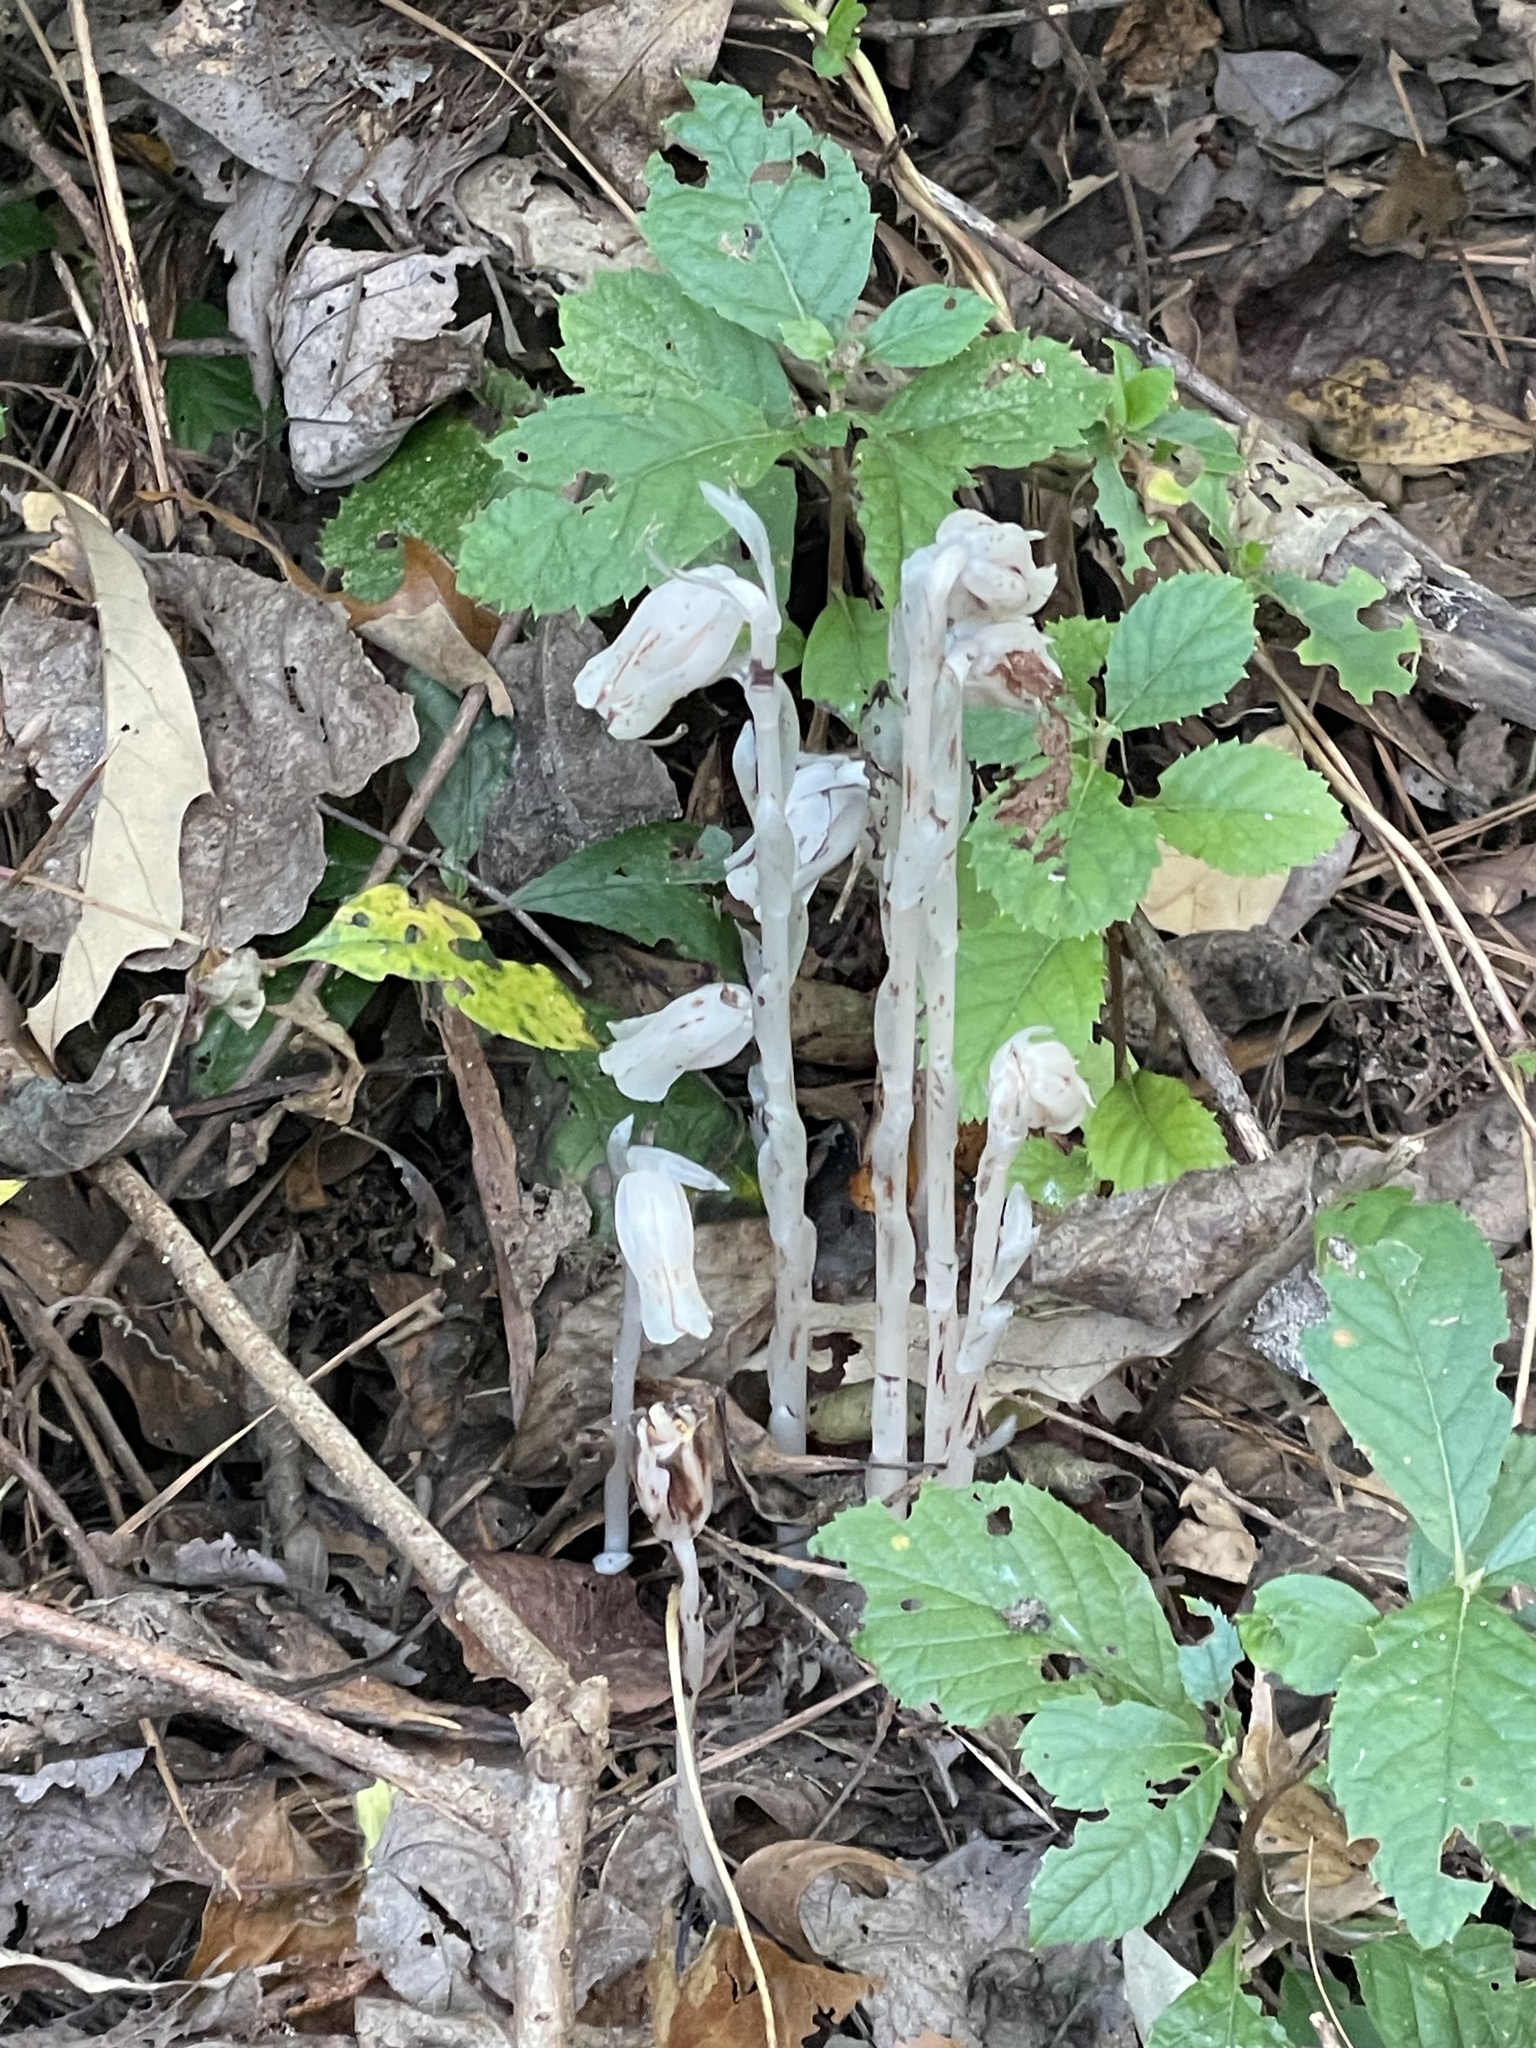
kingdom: Plantae
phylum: Tracheophyta
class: Magnoliopsida
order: Ericales
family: Ericaceae
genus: Monotropa
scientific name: Monotropa uniflora
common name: Convulsion root
